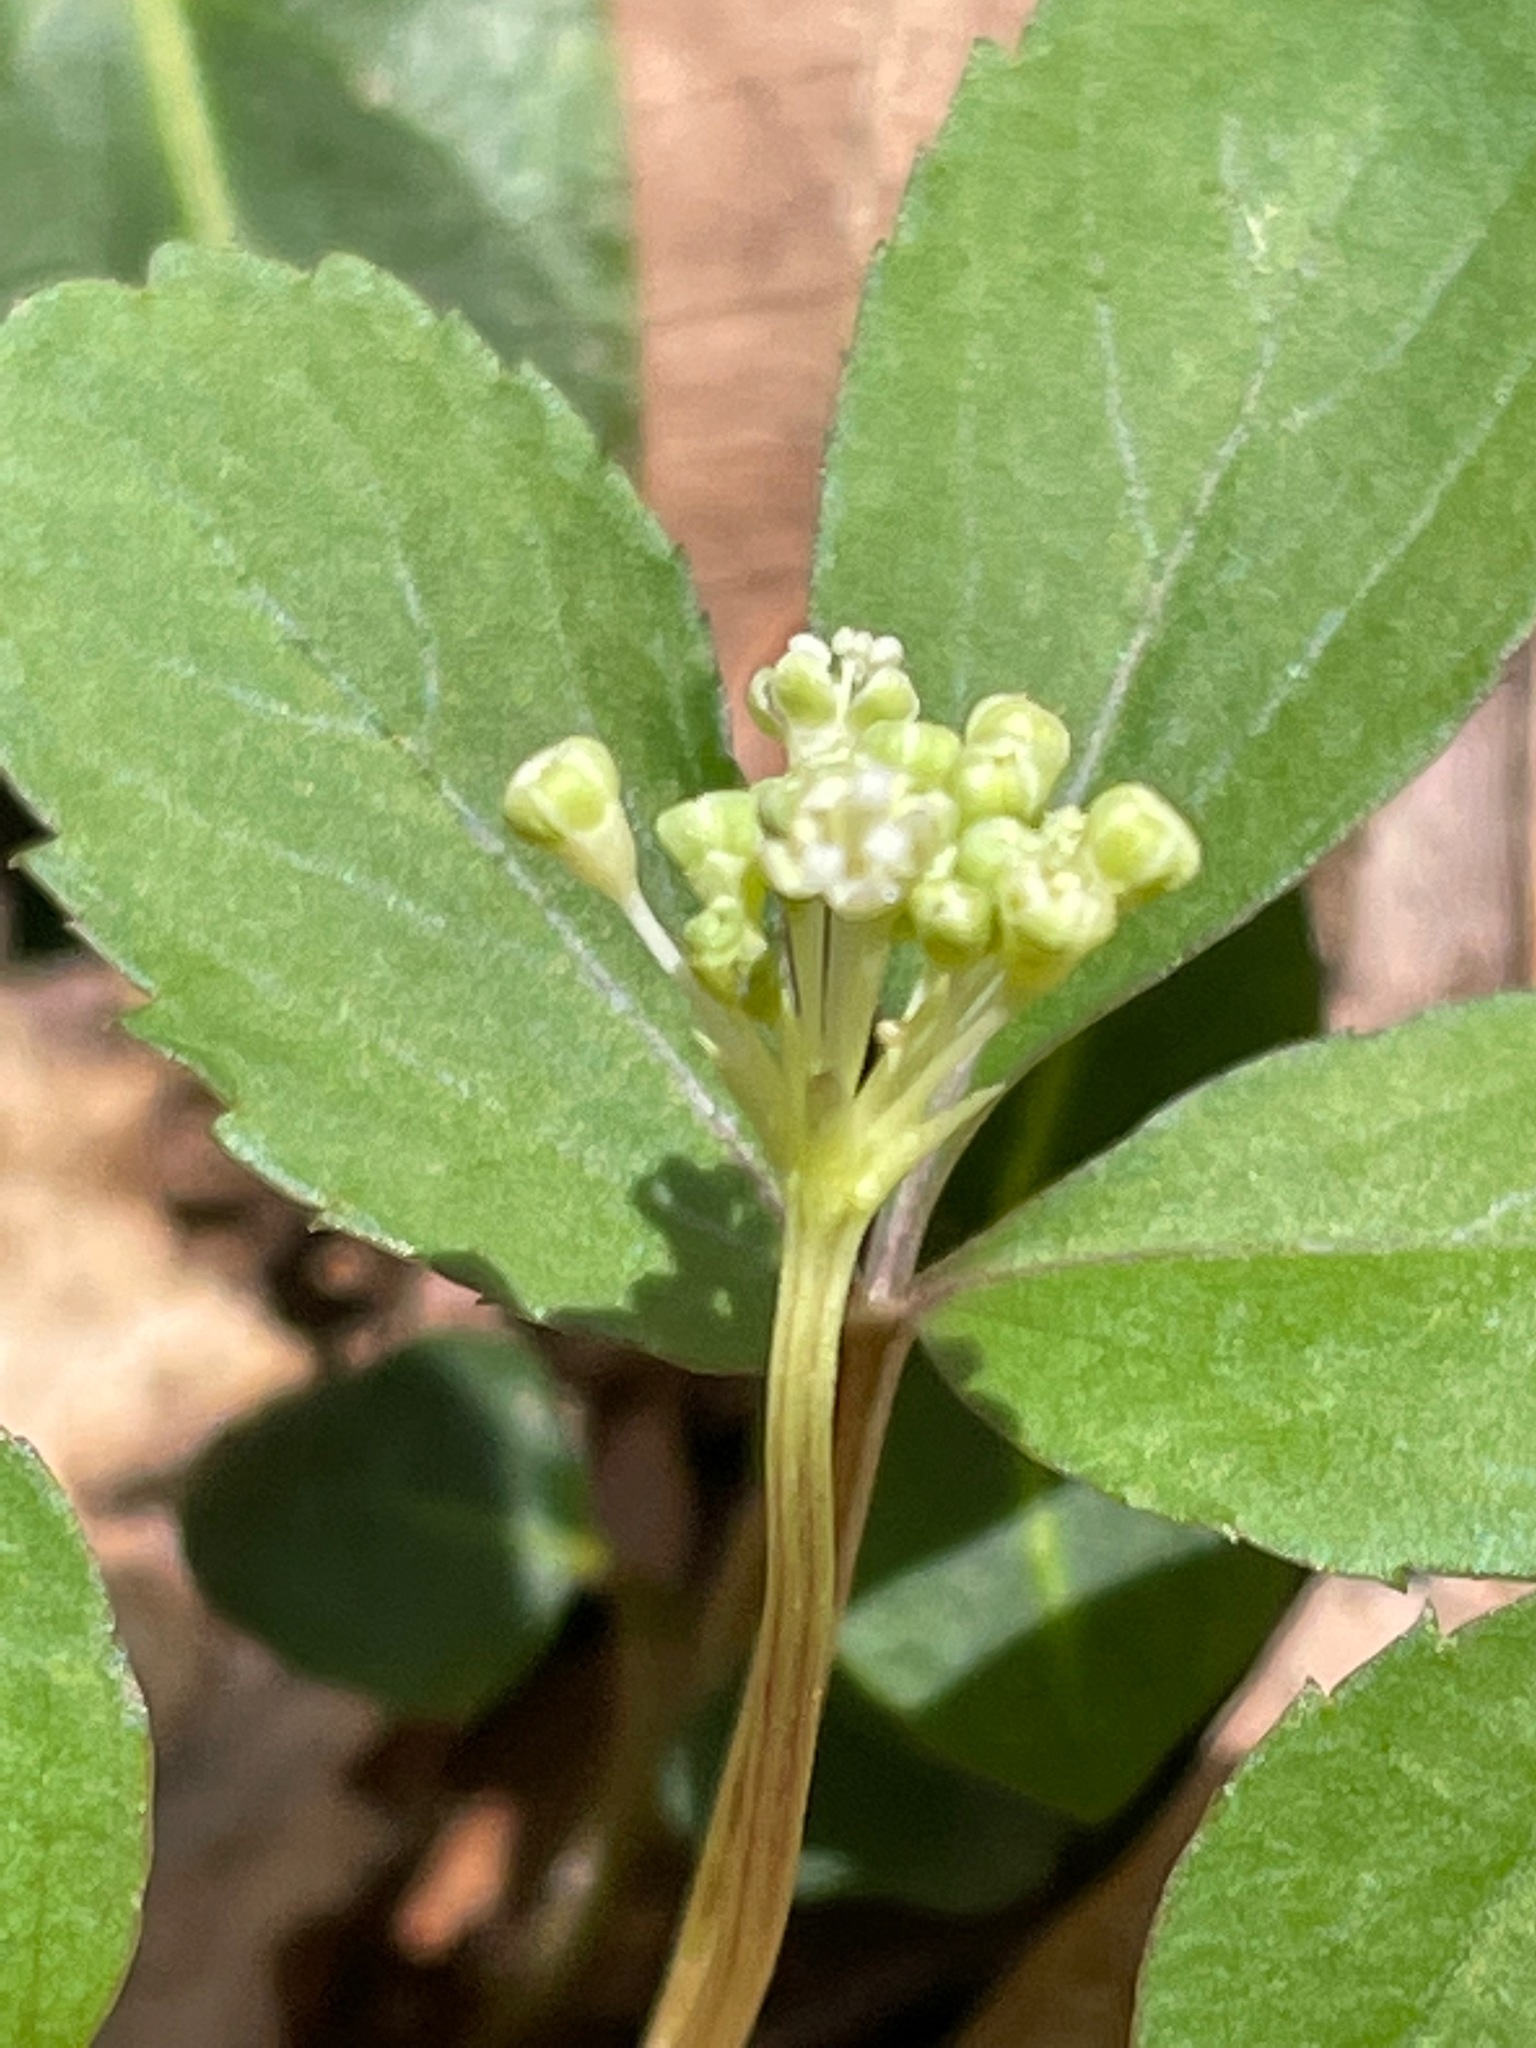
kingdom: Plantae
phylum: Tracheophyta
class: Magnoliopsida
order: Apiales
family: Araliaceae
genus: Panax
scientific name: Panax trifolius
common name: Dwarf ginseng
